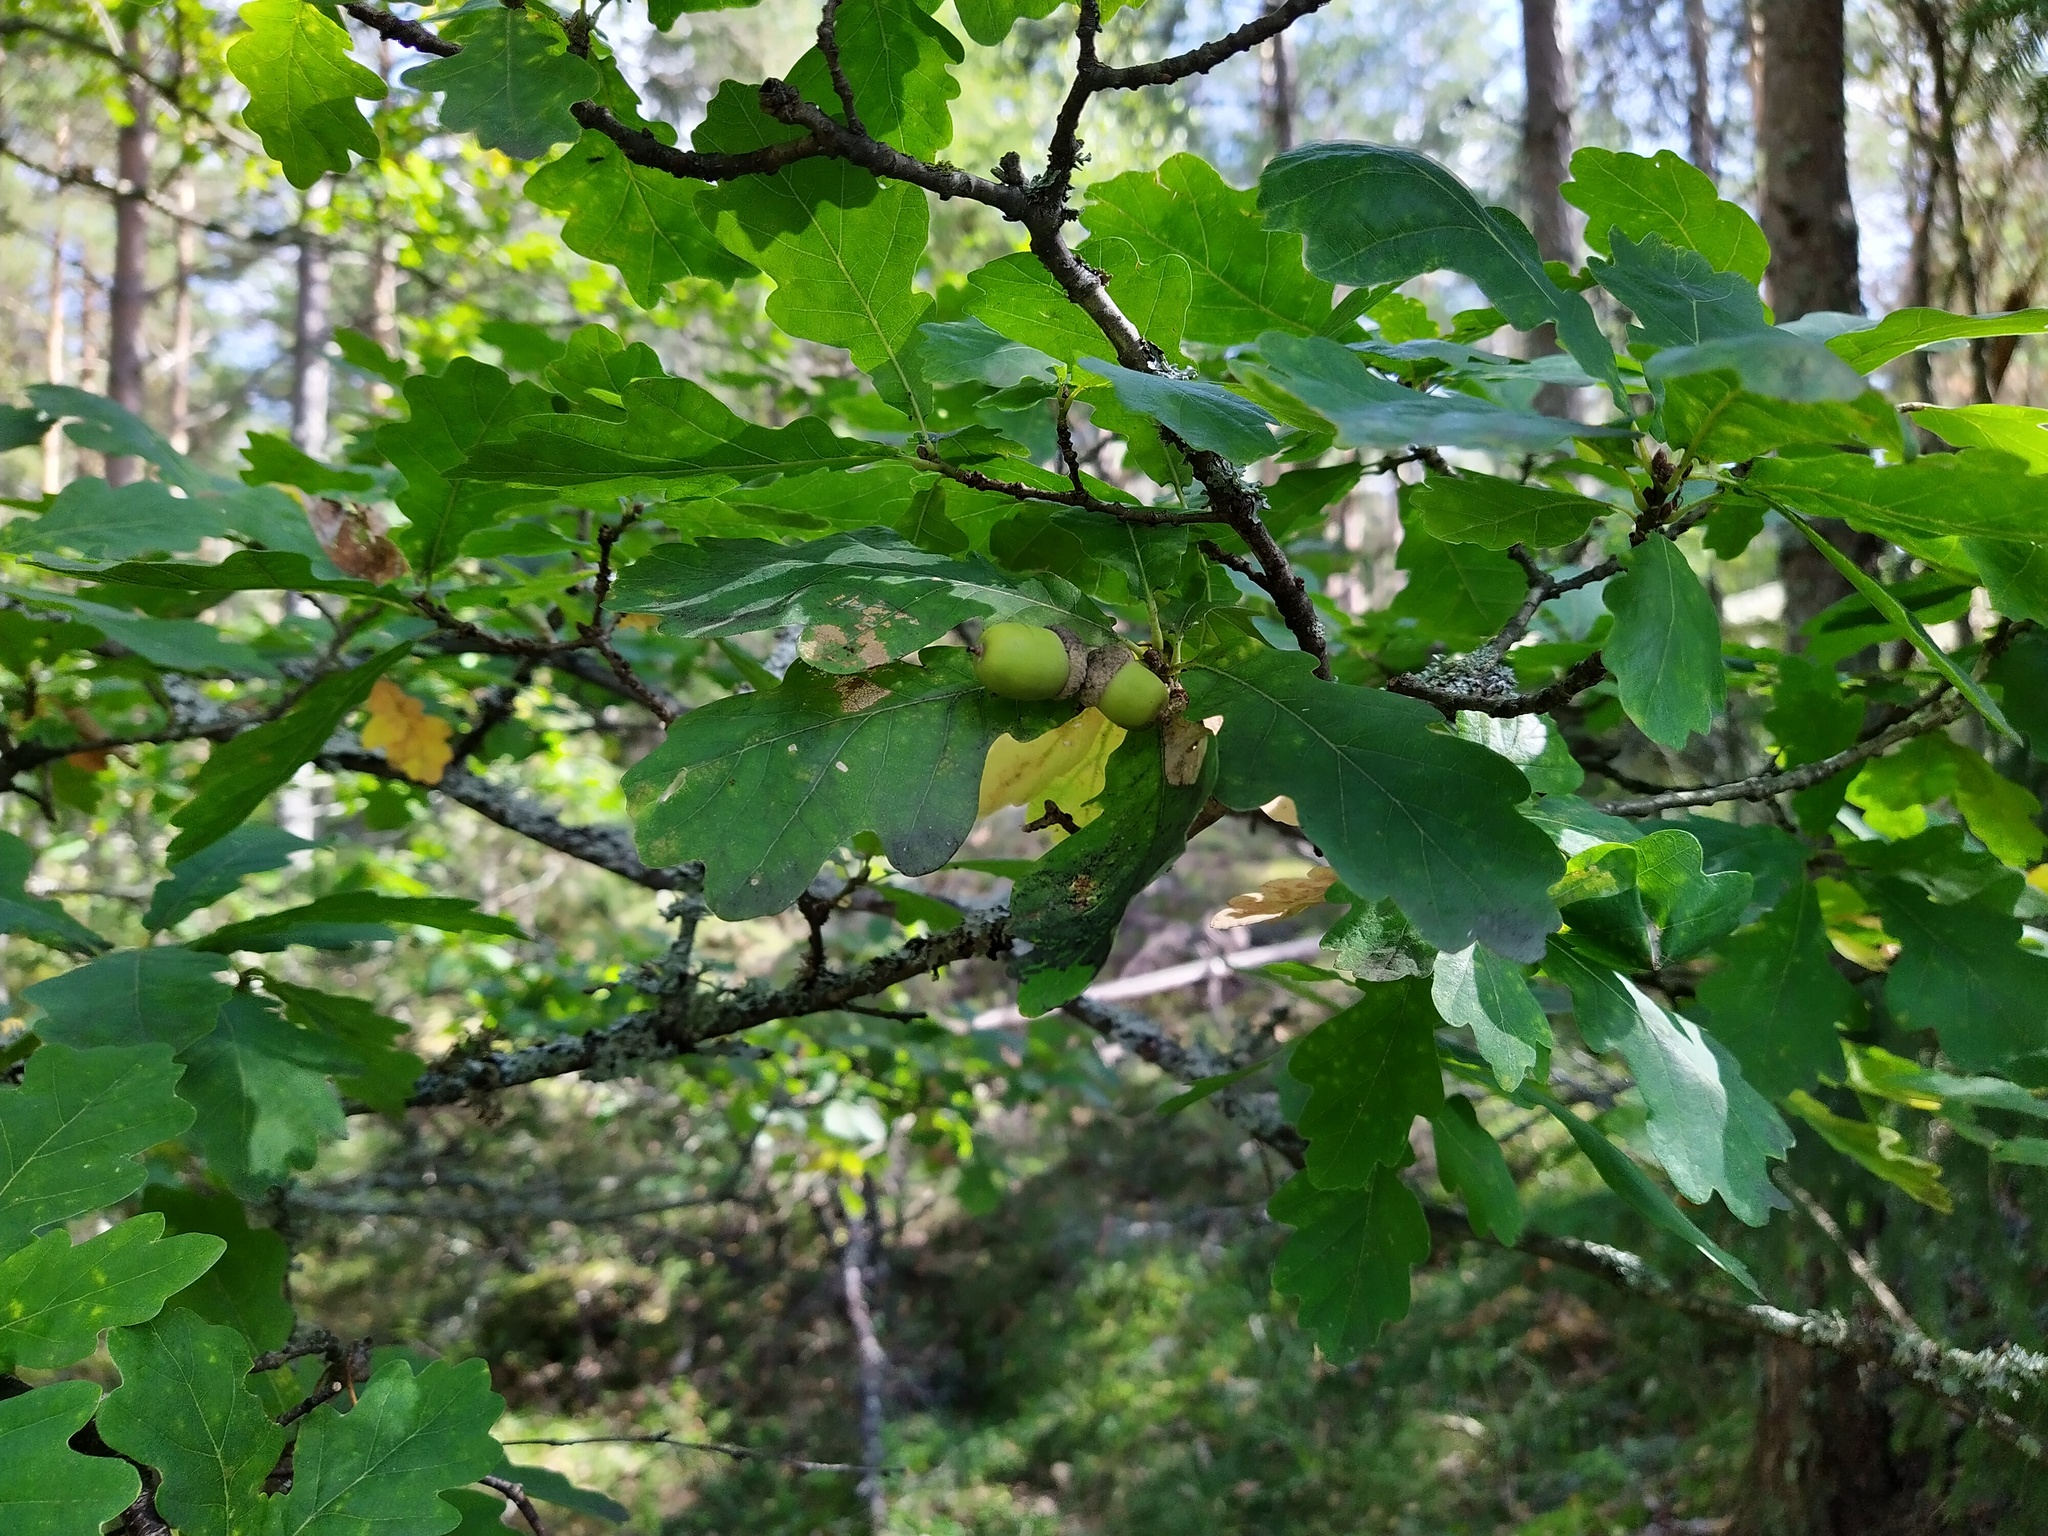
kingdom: Plantae
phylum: Tracheophyta
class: Magnoliopsida
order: Fagales
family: Fagaceae
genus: Quercus
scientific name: Quercus robur
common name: Pedunculate oak
